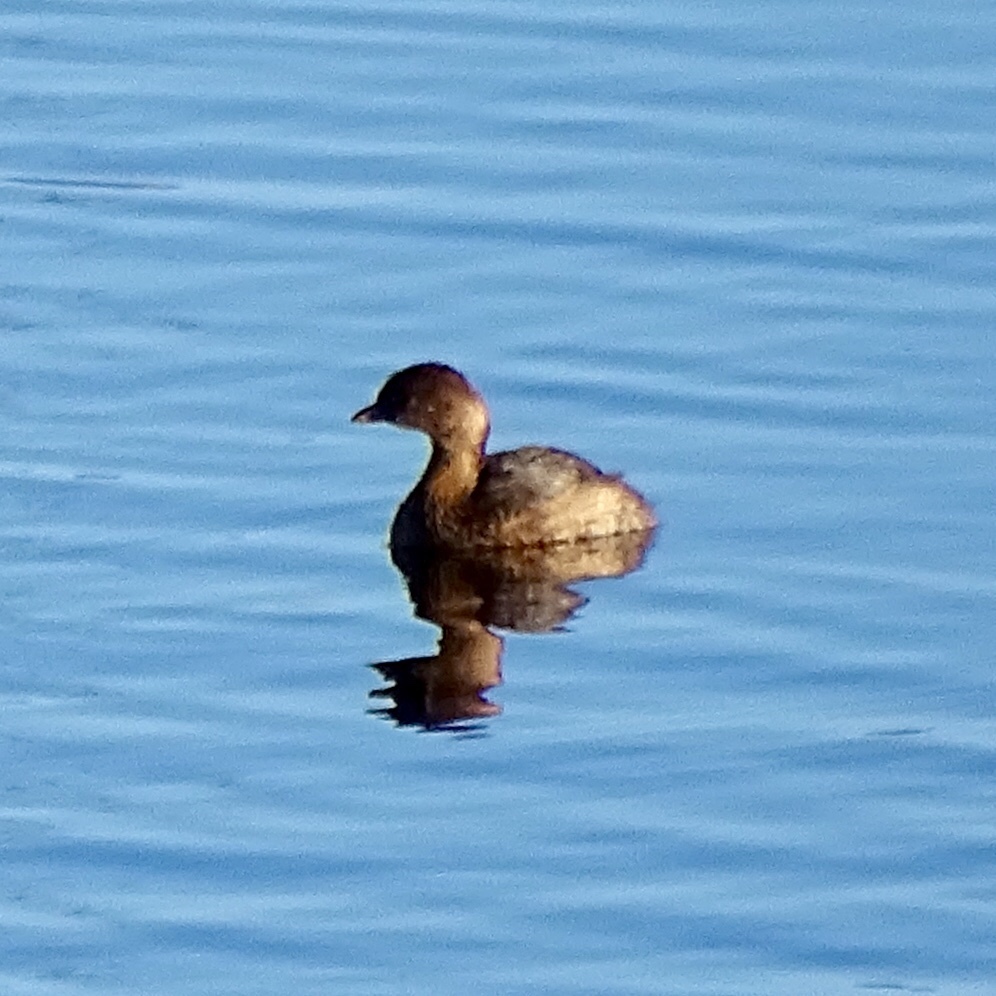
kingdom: Animalia
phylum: Chordata
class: Aves
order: Podicipediformes
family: Podicipedidae
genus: Podilymbus
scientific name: Podilymbus podiceps
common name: Pied-billed grebe
